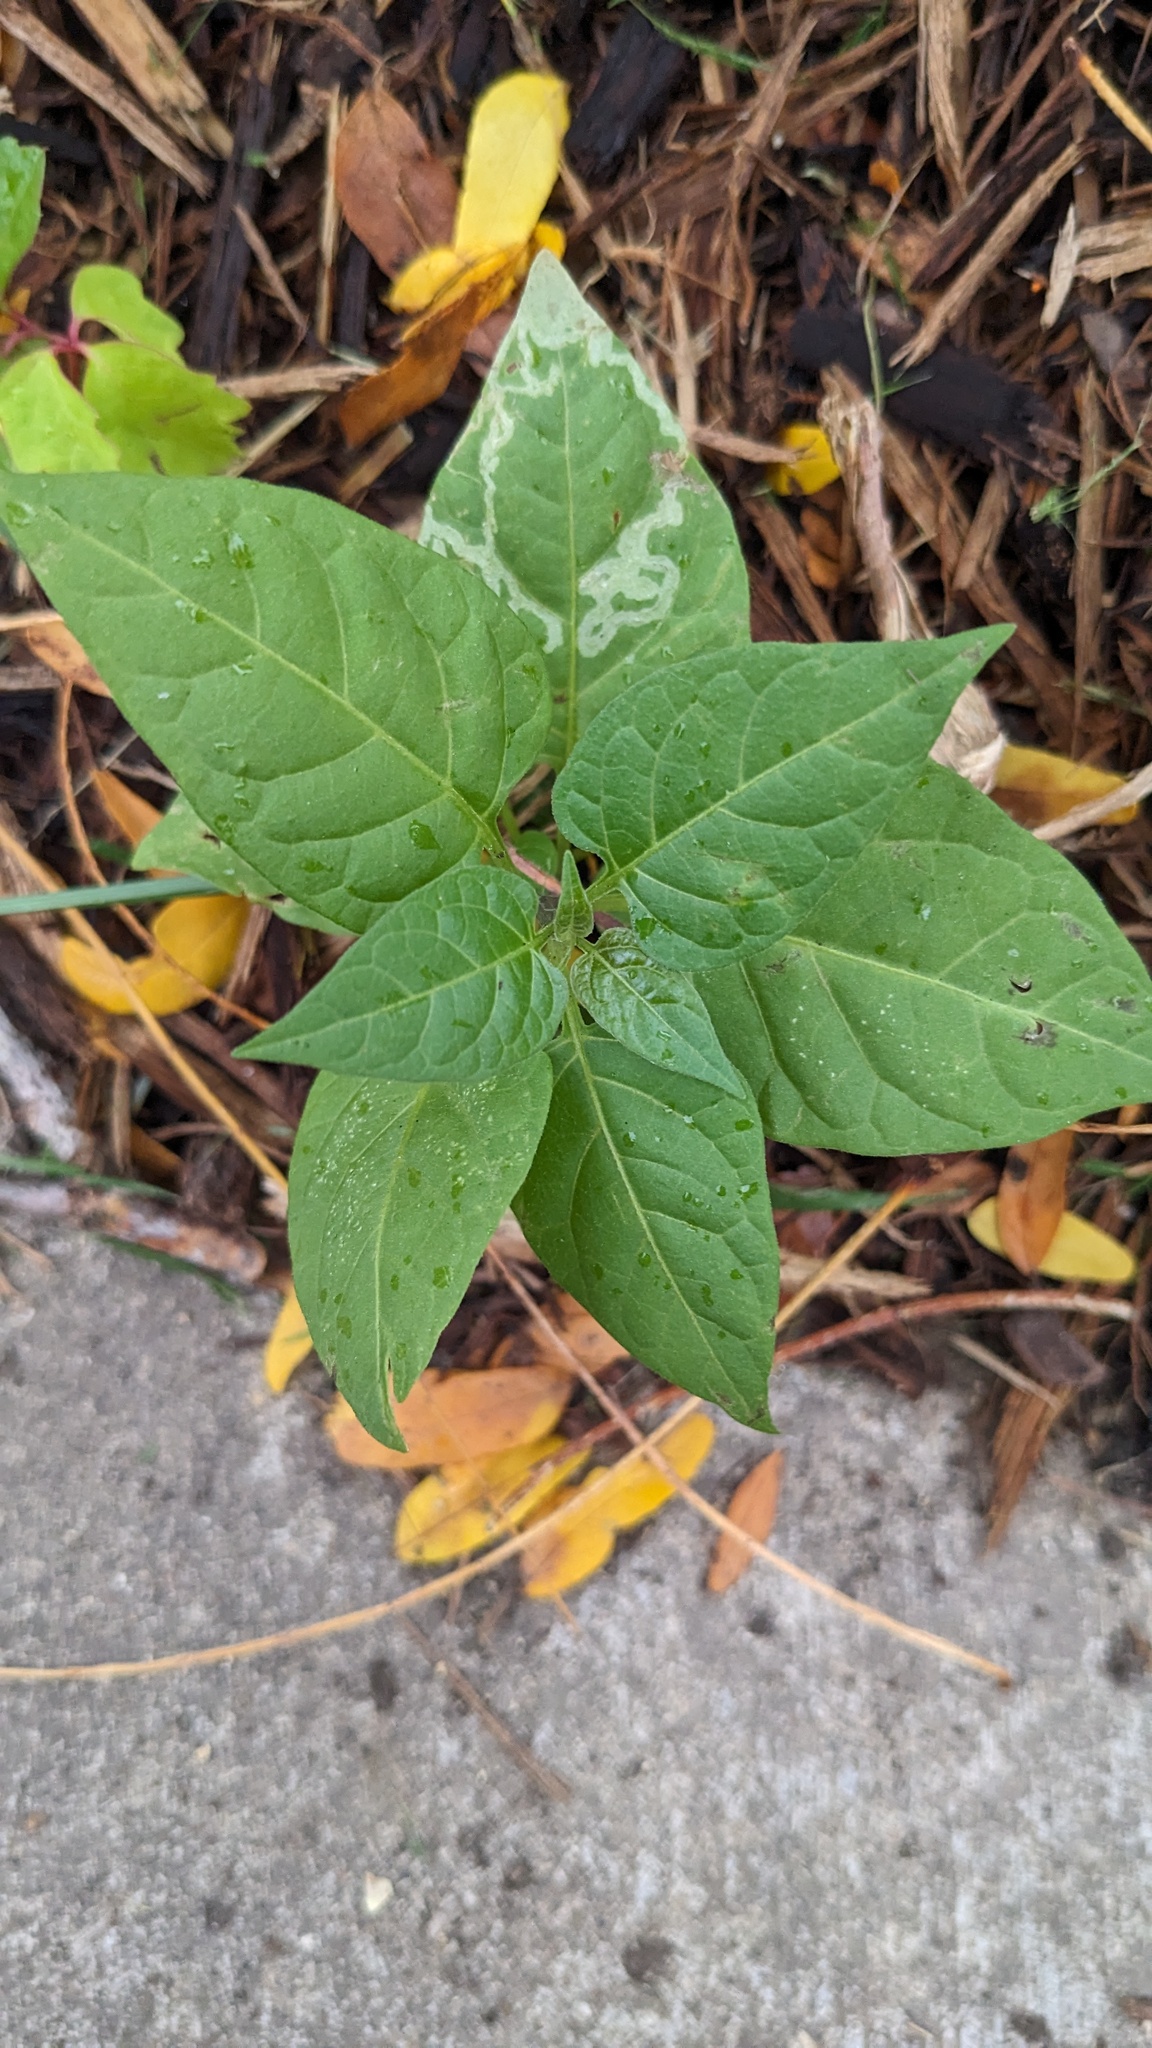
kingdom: Plantae
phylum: Tracheophyta
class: Magnoliopsida
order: Solanales
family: Solanaceae
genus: Solanum
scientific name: Solanum dulcamara
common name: Climbing nightshade
